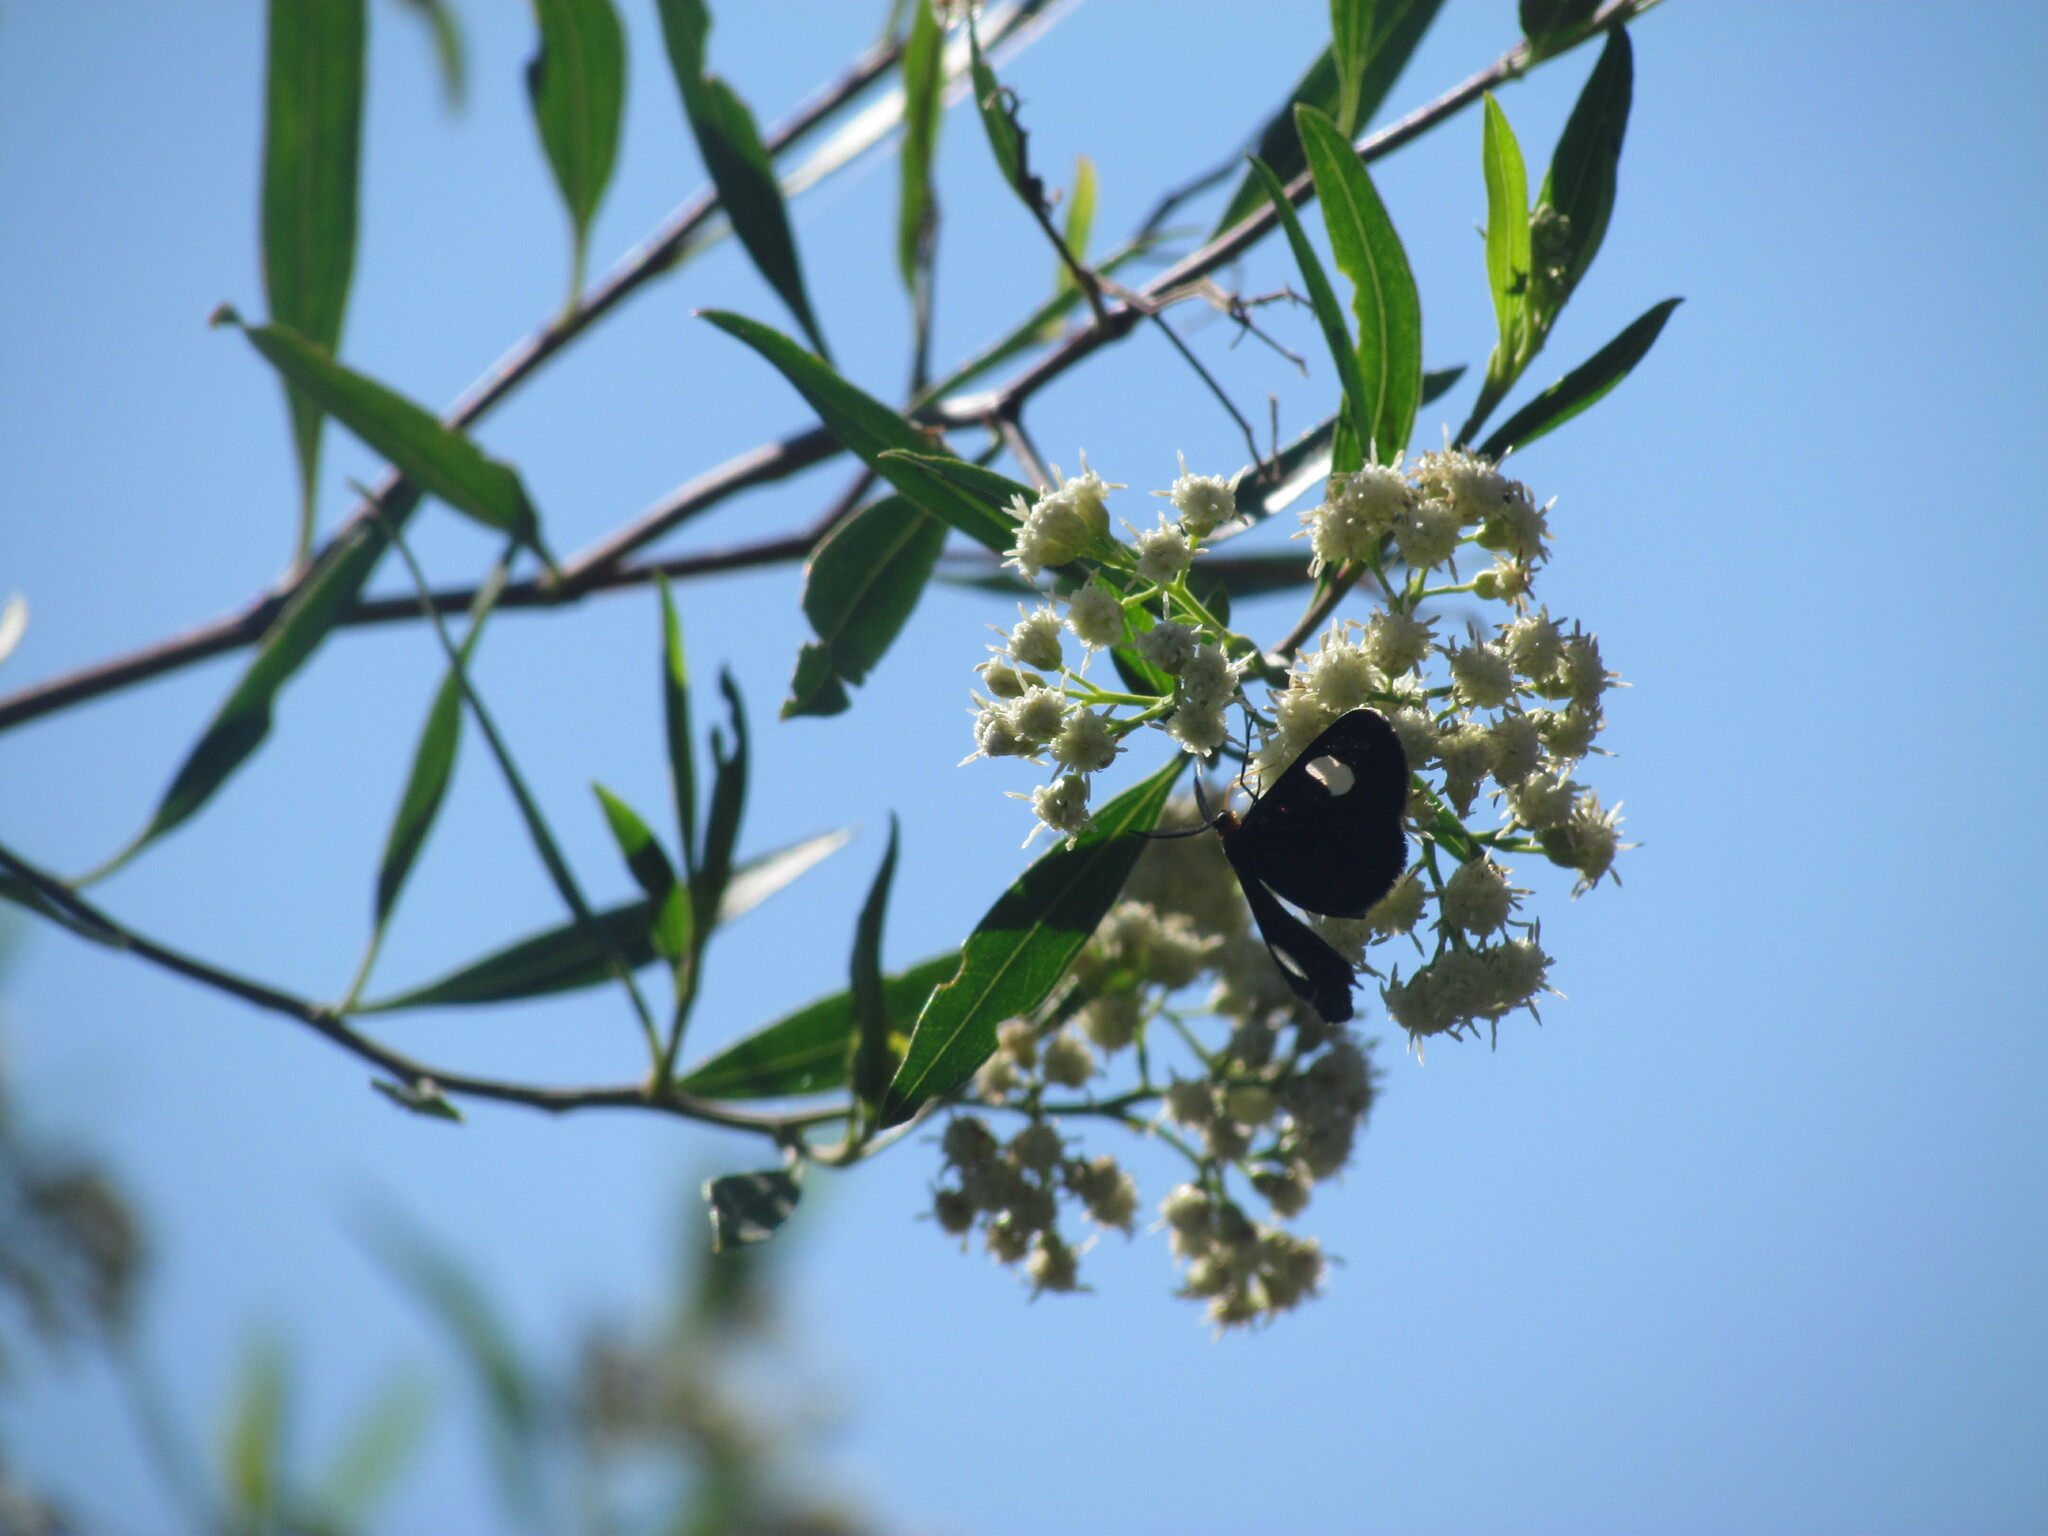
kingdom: Animalia
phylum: Arthropoda
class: Insecta
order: Lepidoptera
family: Geometridae
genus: Melanchroia
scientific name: Melanchroia aterea
